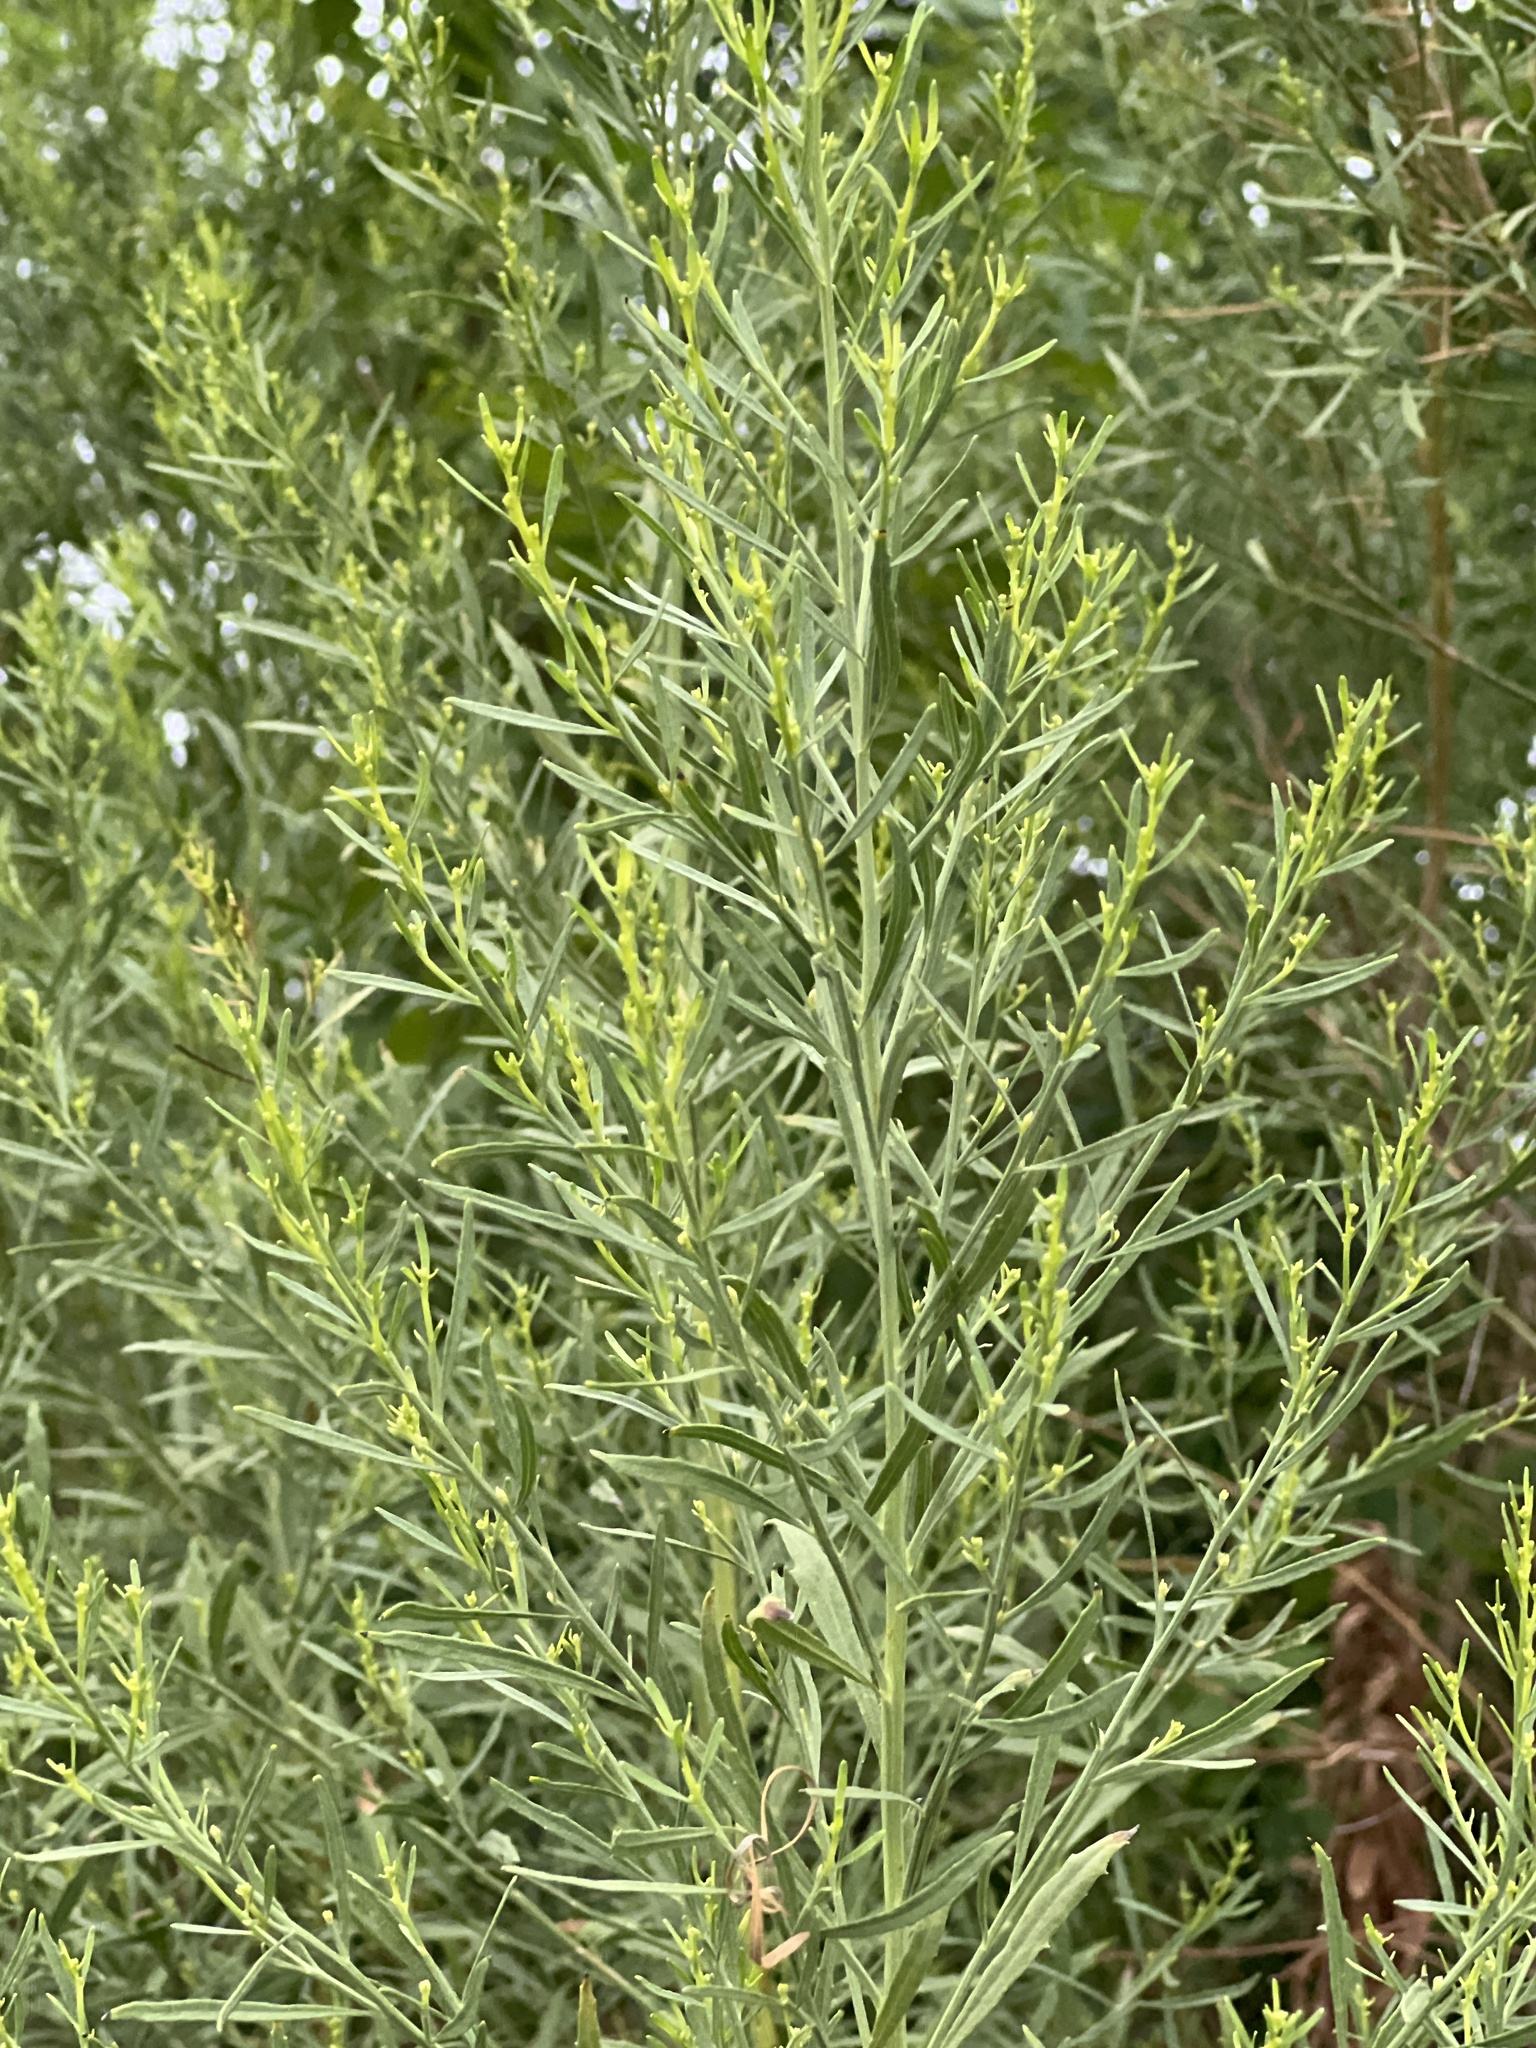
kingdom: Plantae
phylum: Tracheophyta
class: Magnoliopsida
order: Asterales
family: Asteraceae
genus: Baccharis
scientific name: Baccharis neglecta
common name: Roosevelt-weed
